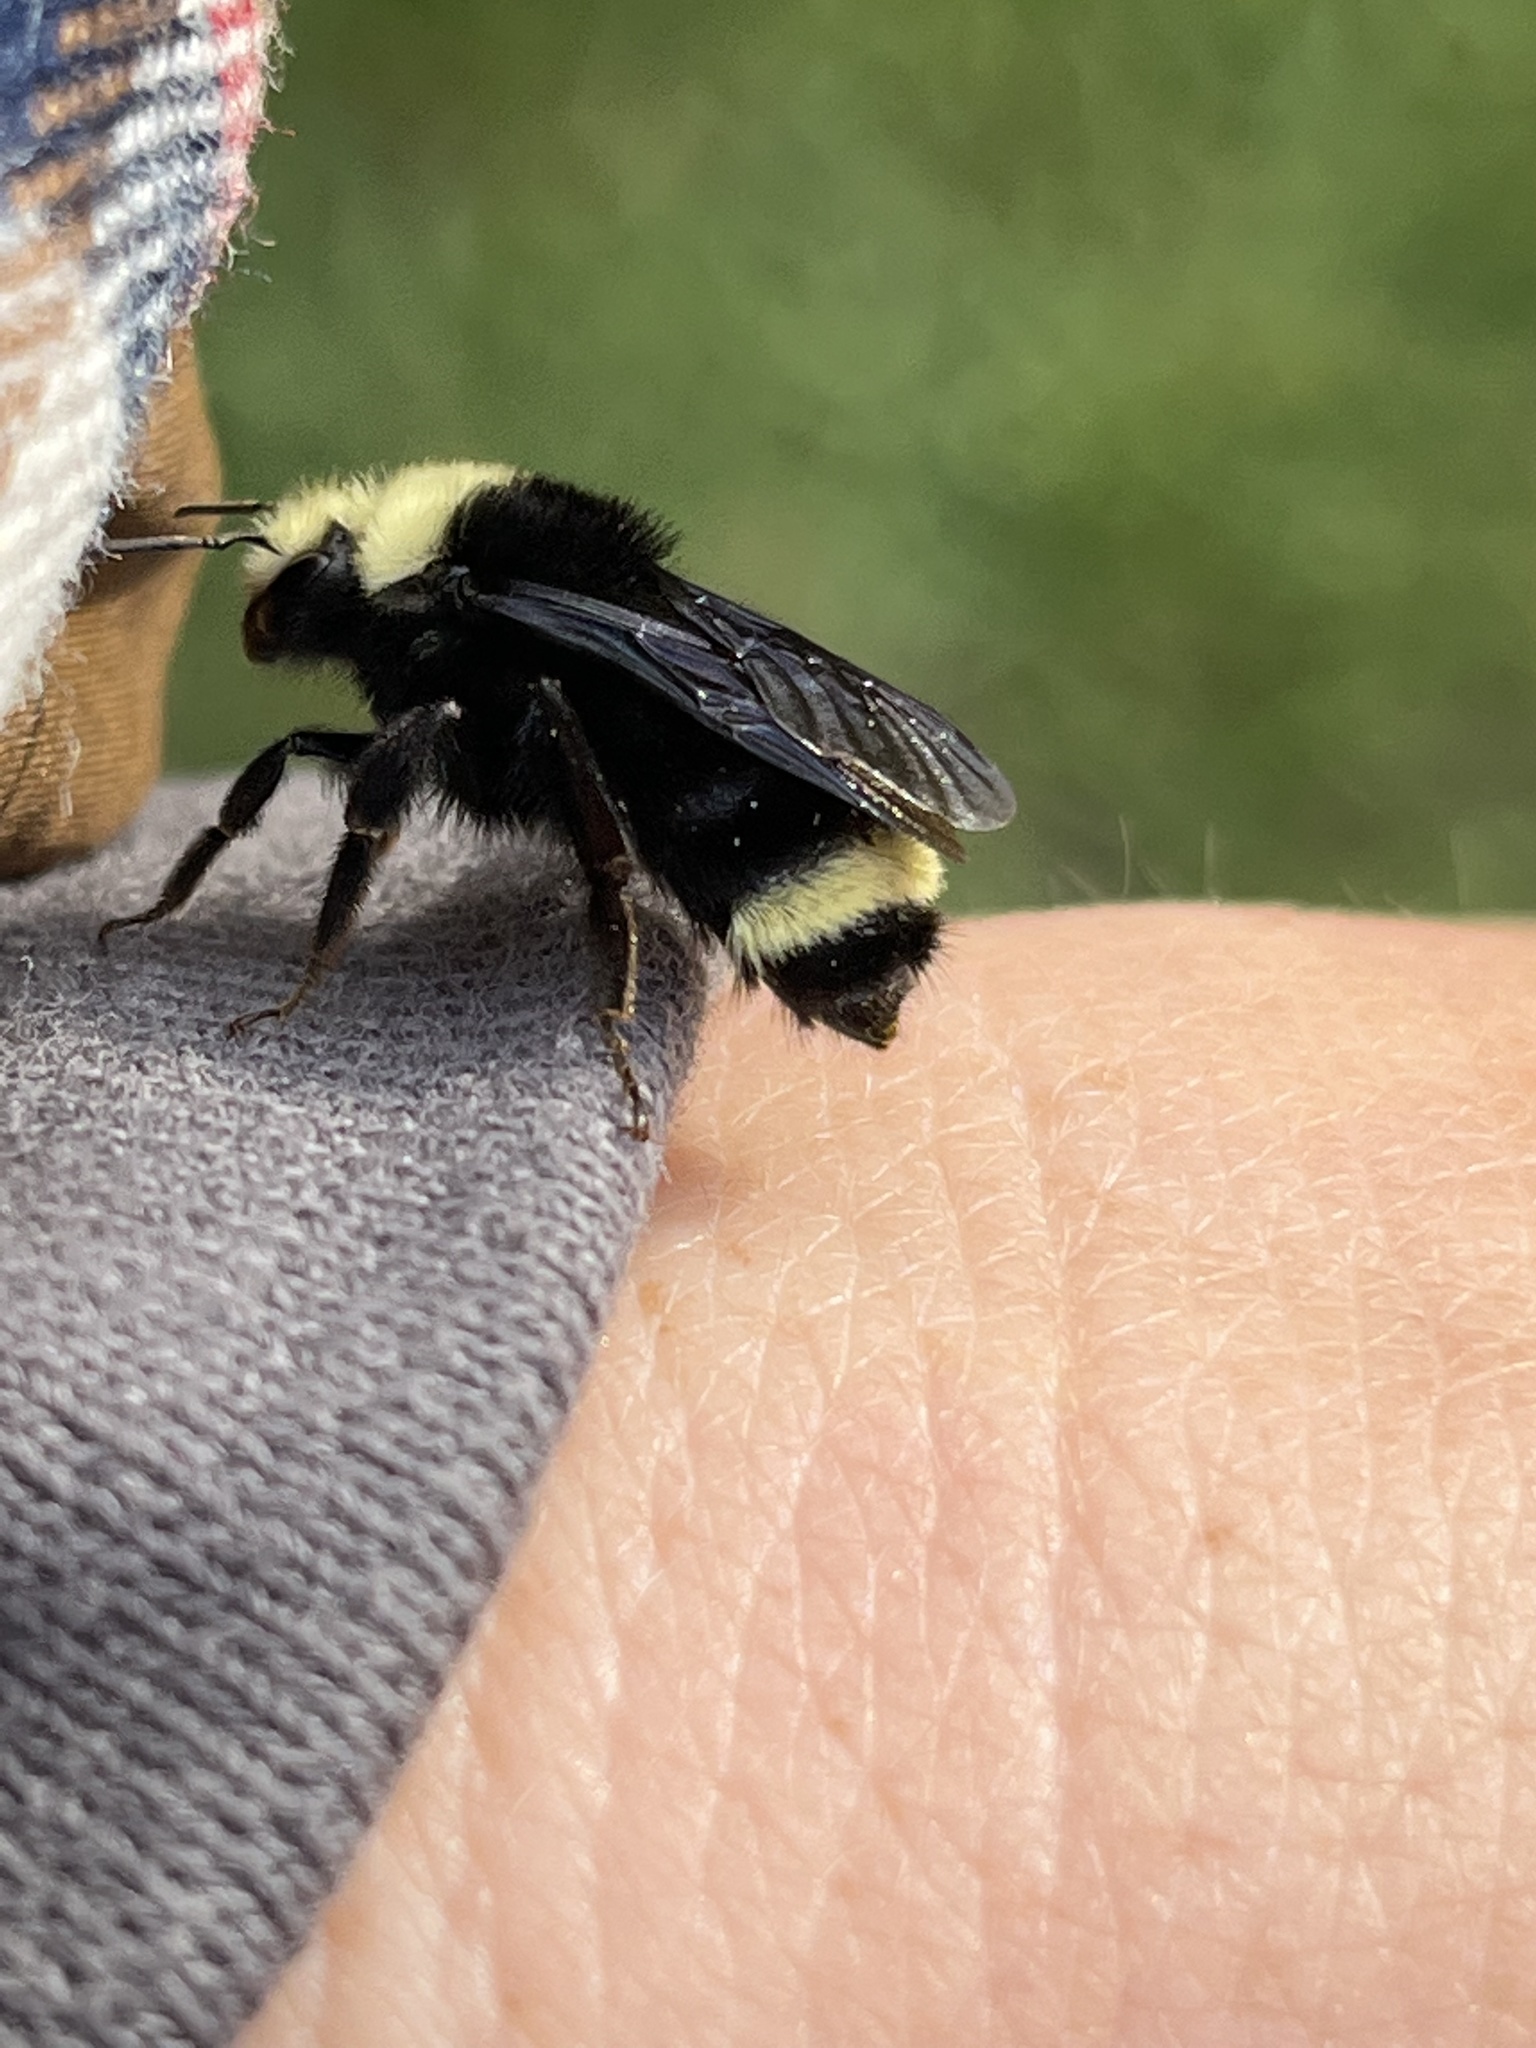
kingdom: Animalia
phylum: Arthropoda
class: Insecta
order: Hymenoptera
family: Apidae
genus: Bombus
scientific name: Bombus vosnesenskii
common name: Vosnesensky bumble bee
